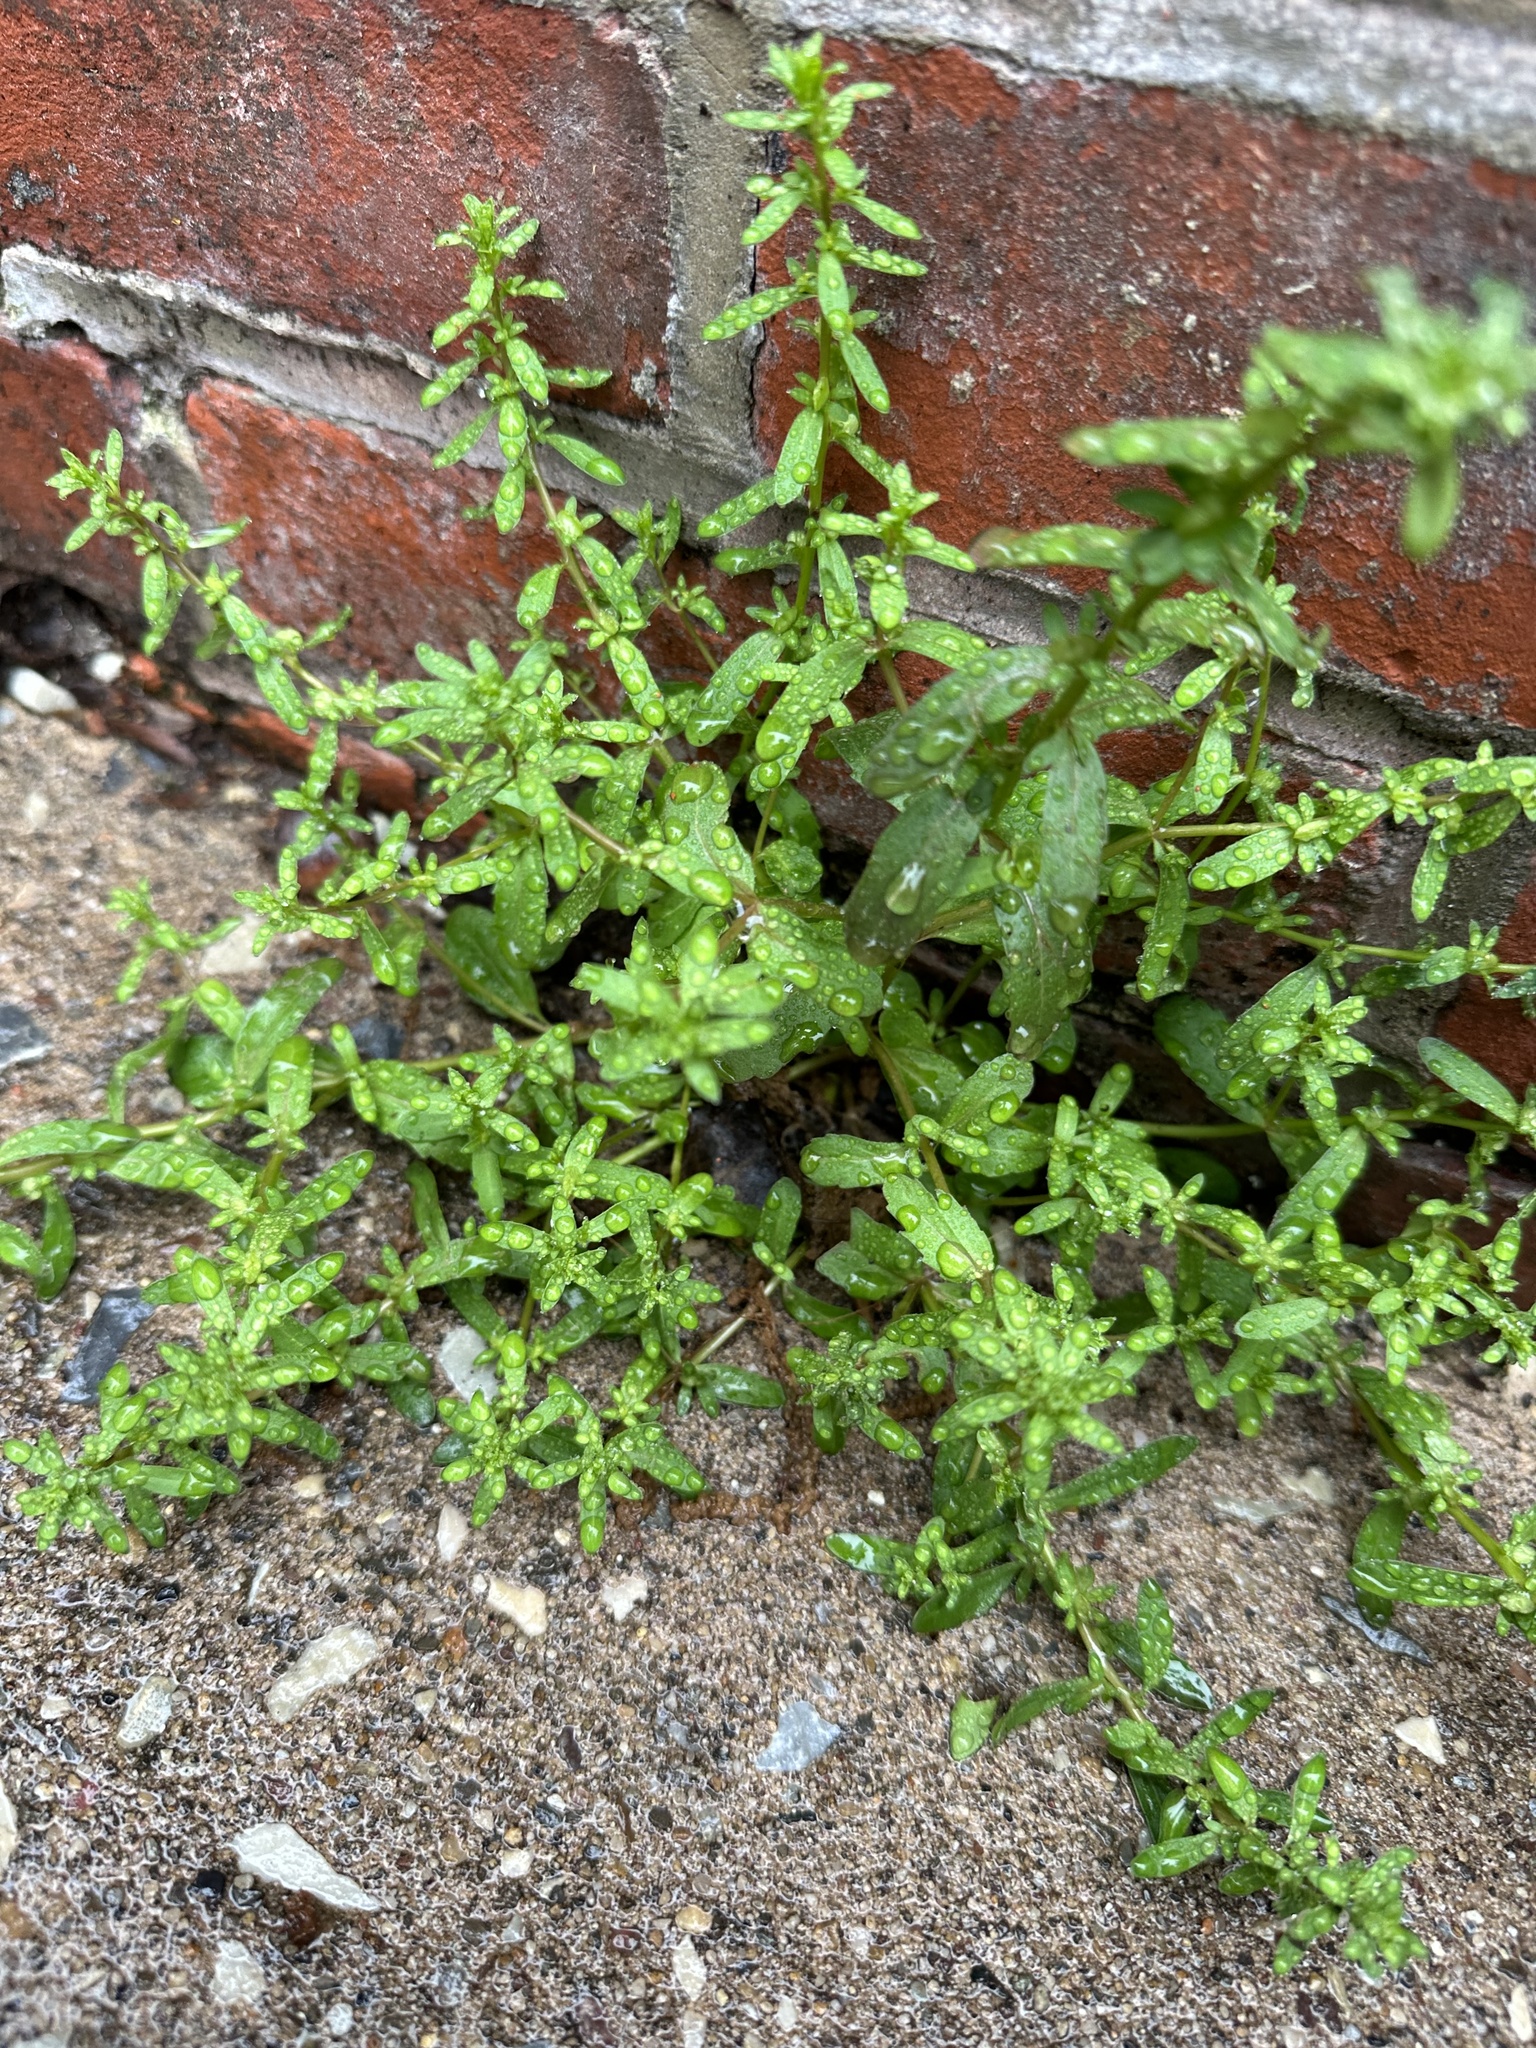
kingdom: Plantae
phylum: Tracheophyta
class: Magnoliopsida
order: Lamiales
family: Plantaginaceae
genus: Veronica
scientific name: Veronica peregrina
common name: Neckweed
